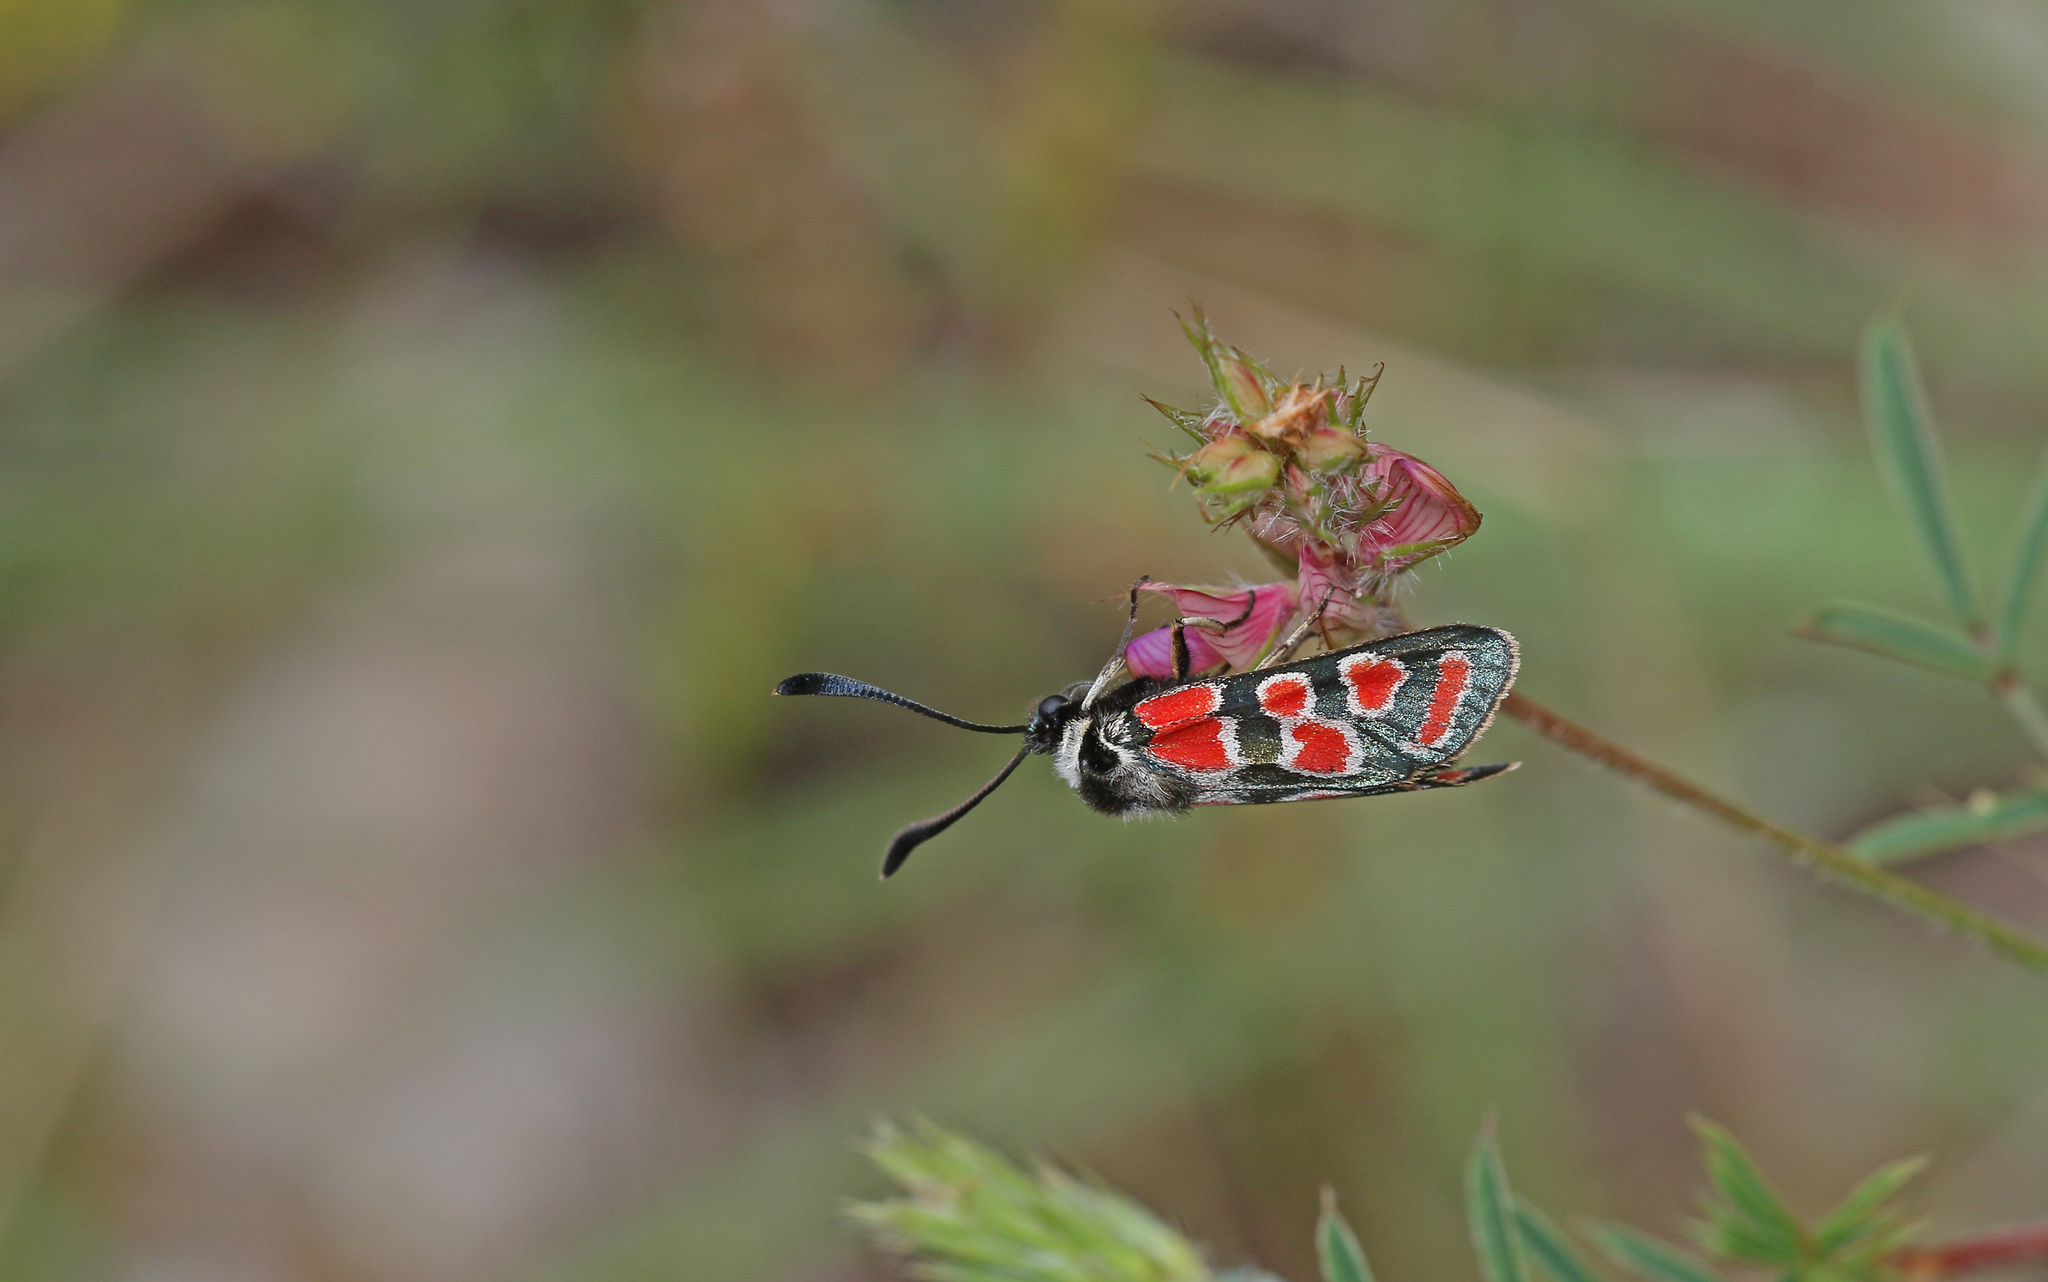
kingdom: Animalia
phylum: Arthropoda
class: Insecta
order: Lepidoptera
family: Zygaenidae
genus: Zygaena
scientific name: Zygaena carniolica
